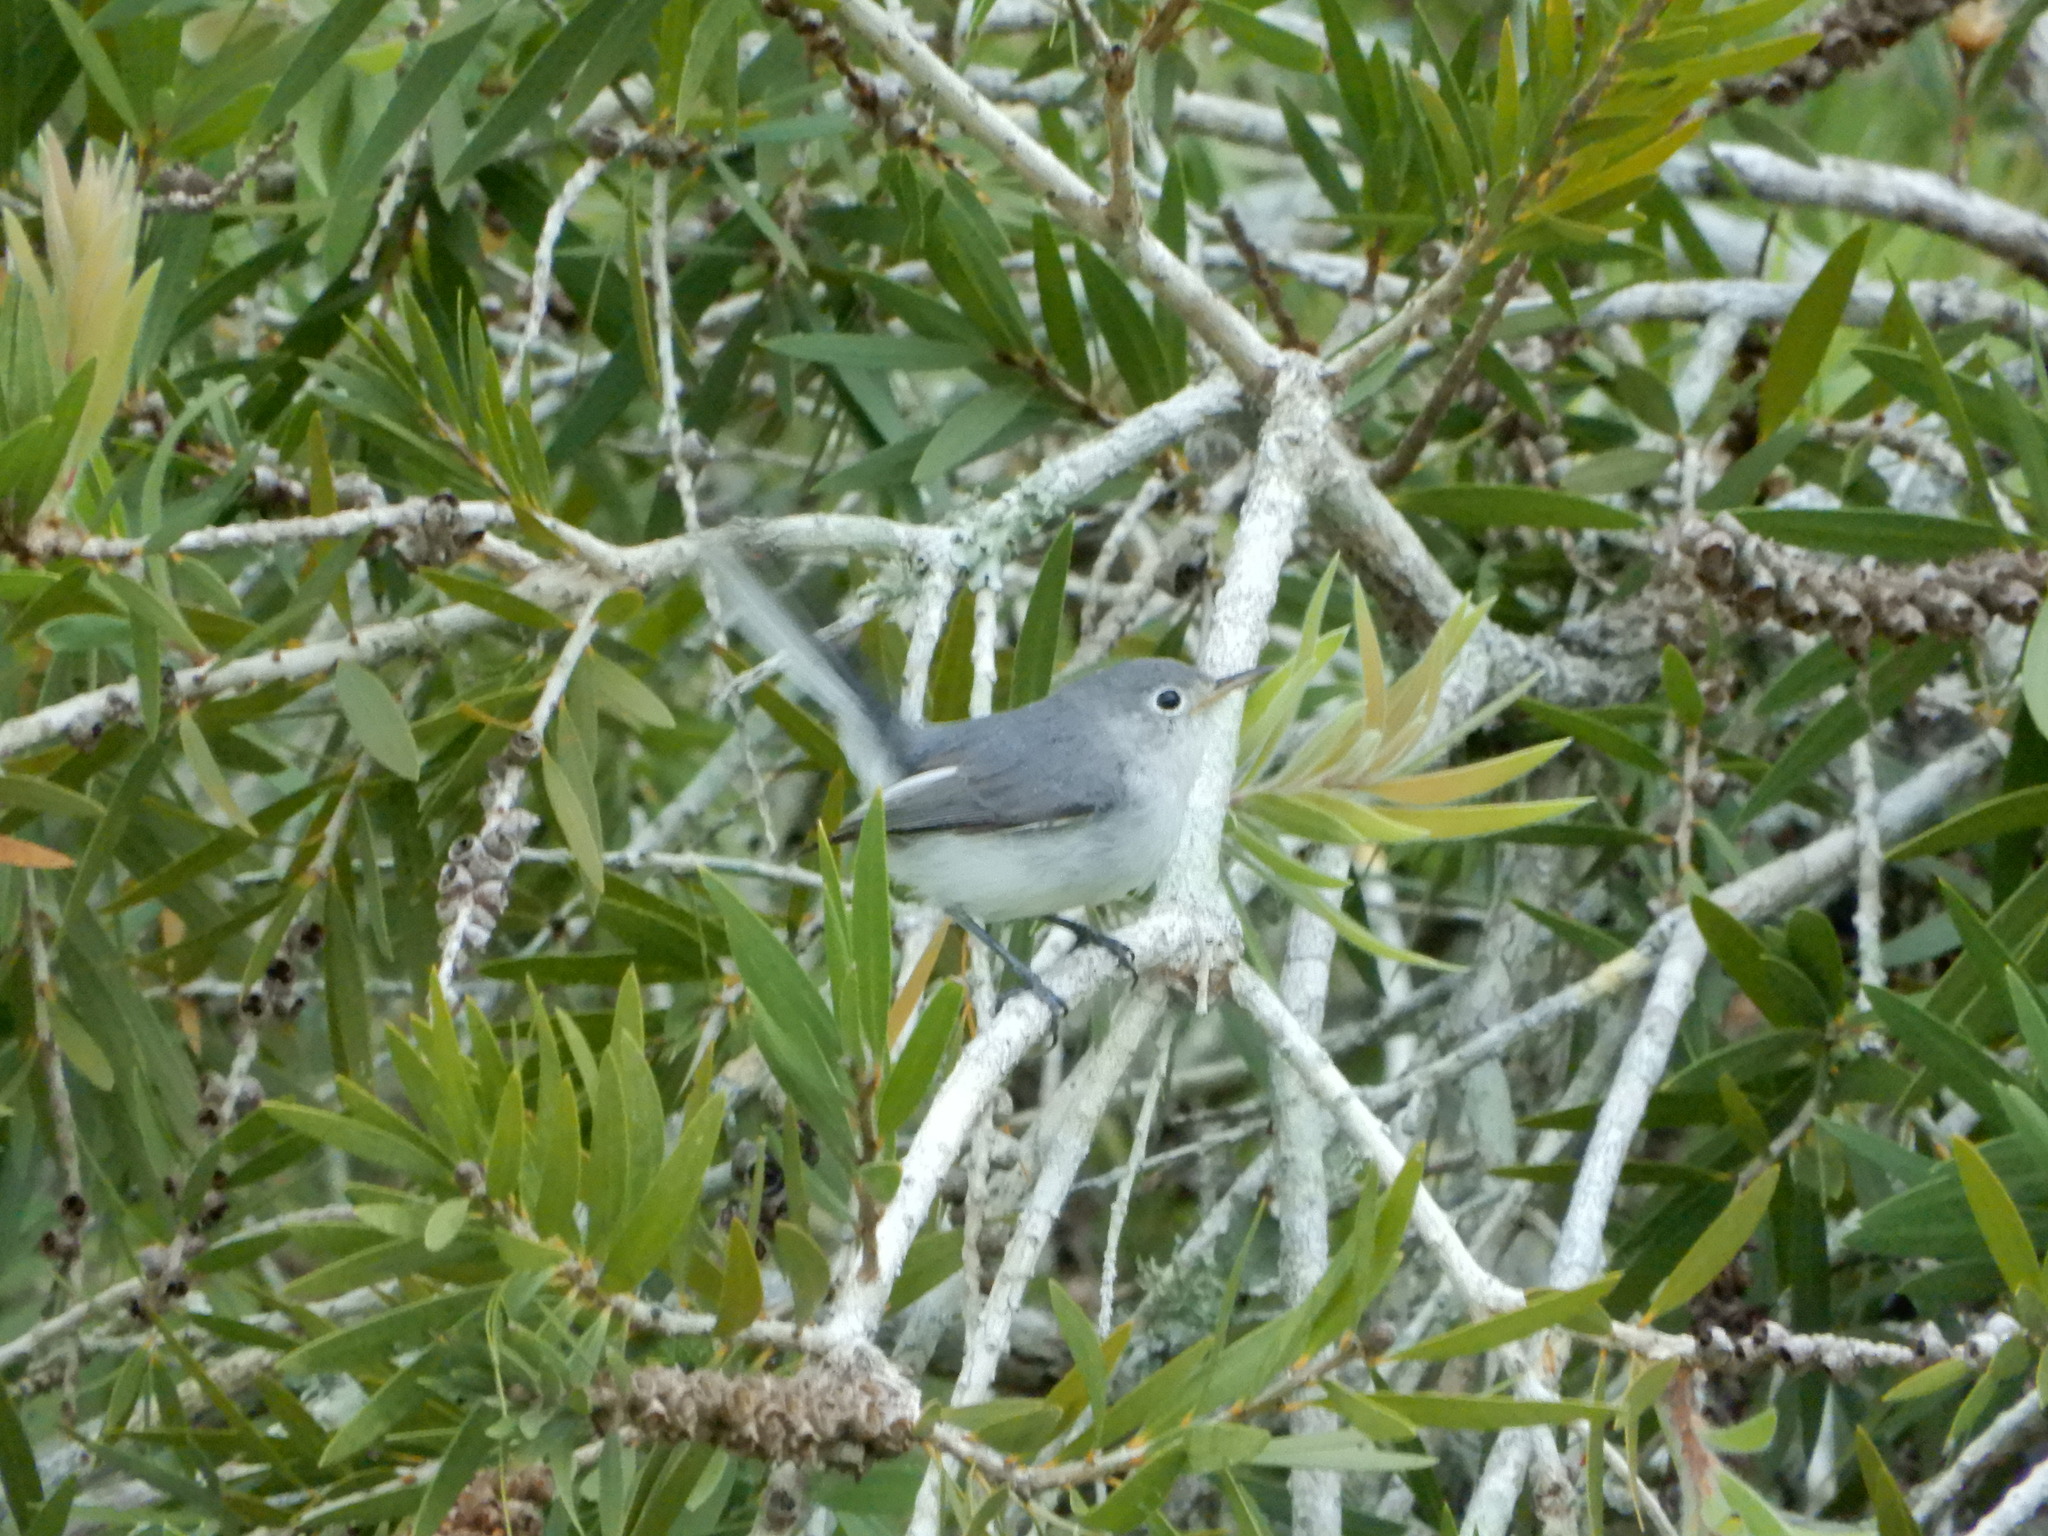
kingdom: Animalia
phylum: Chordata
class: Aves
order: Passeriformes
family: Polioptilidae
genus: Polioptila
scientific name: Polioptila caerulea
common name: Blue-gray gnatcatcher
